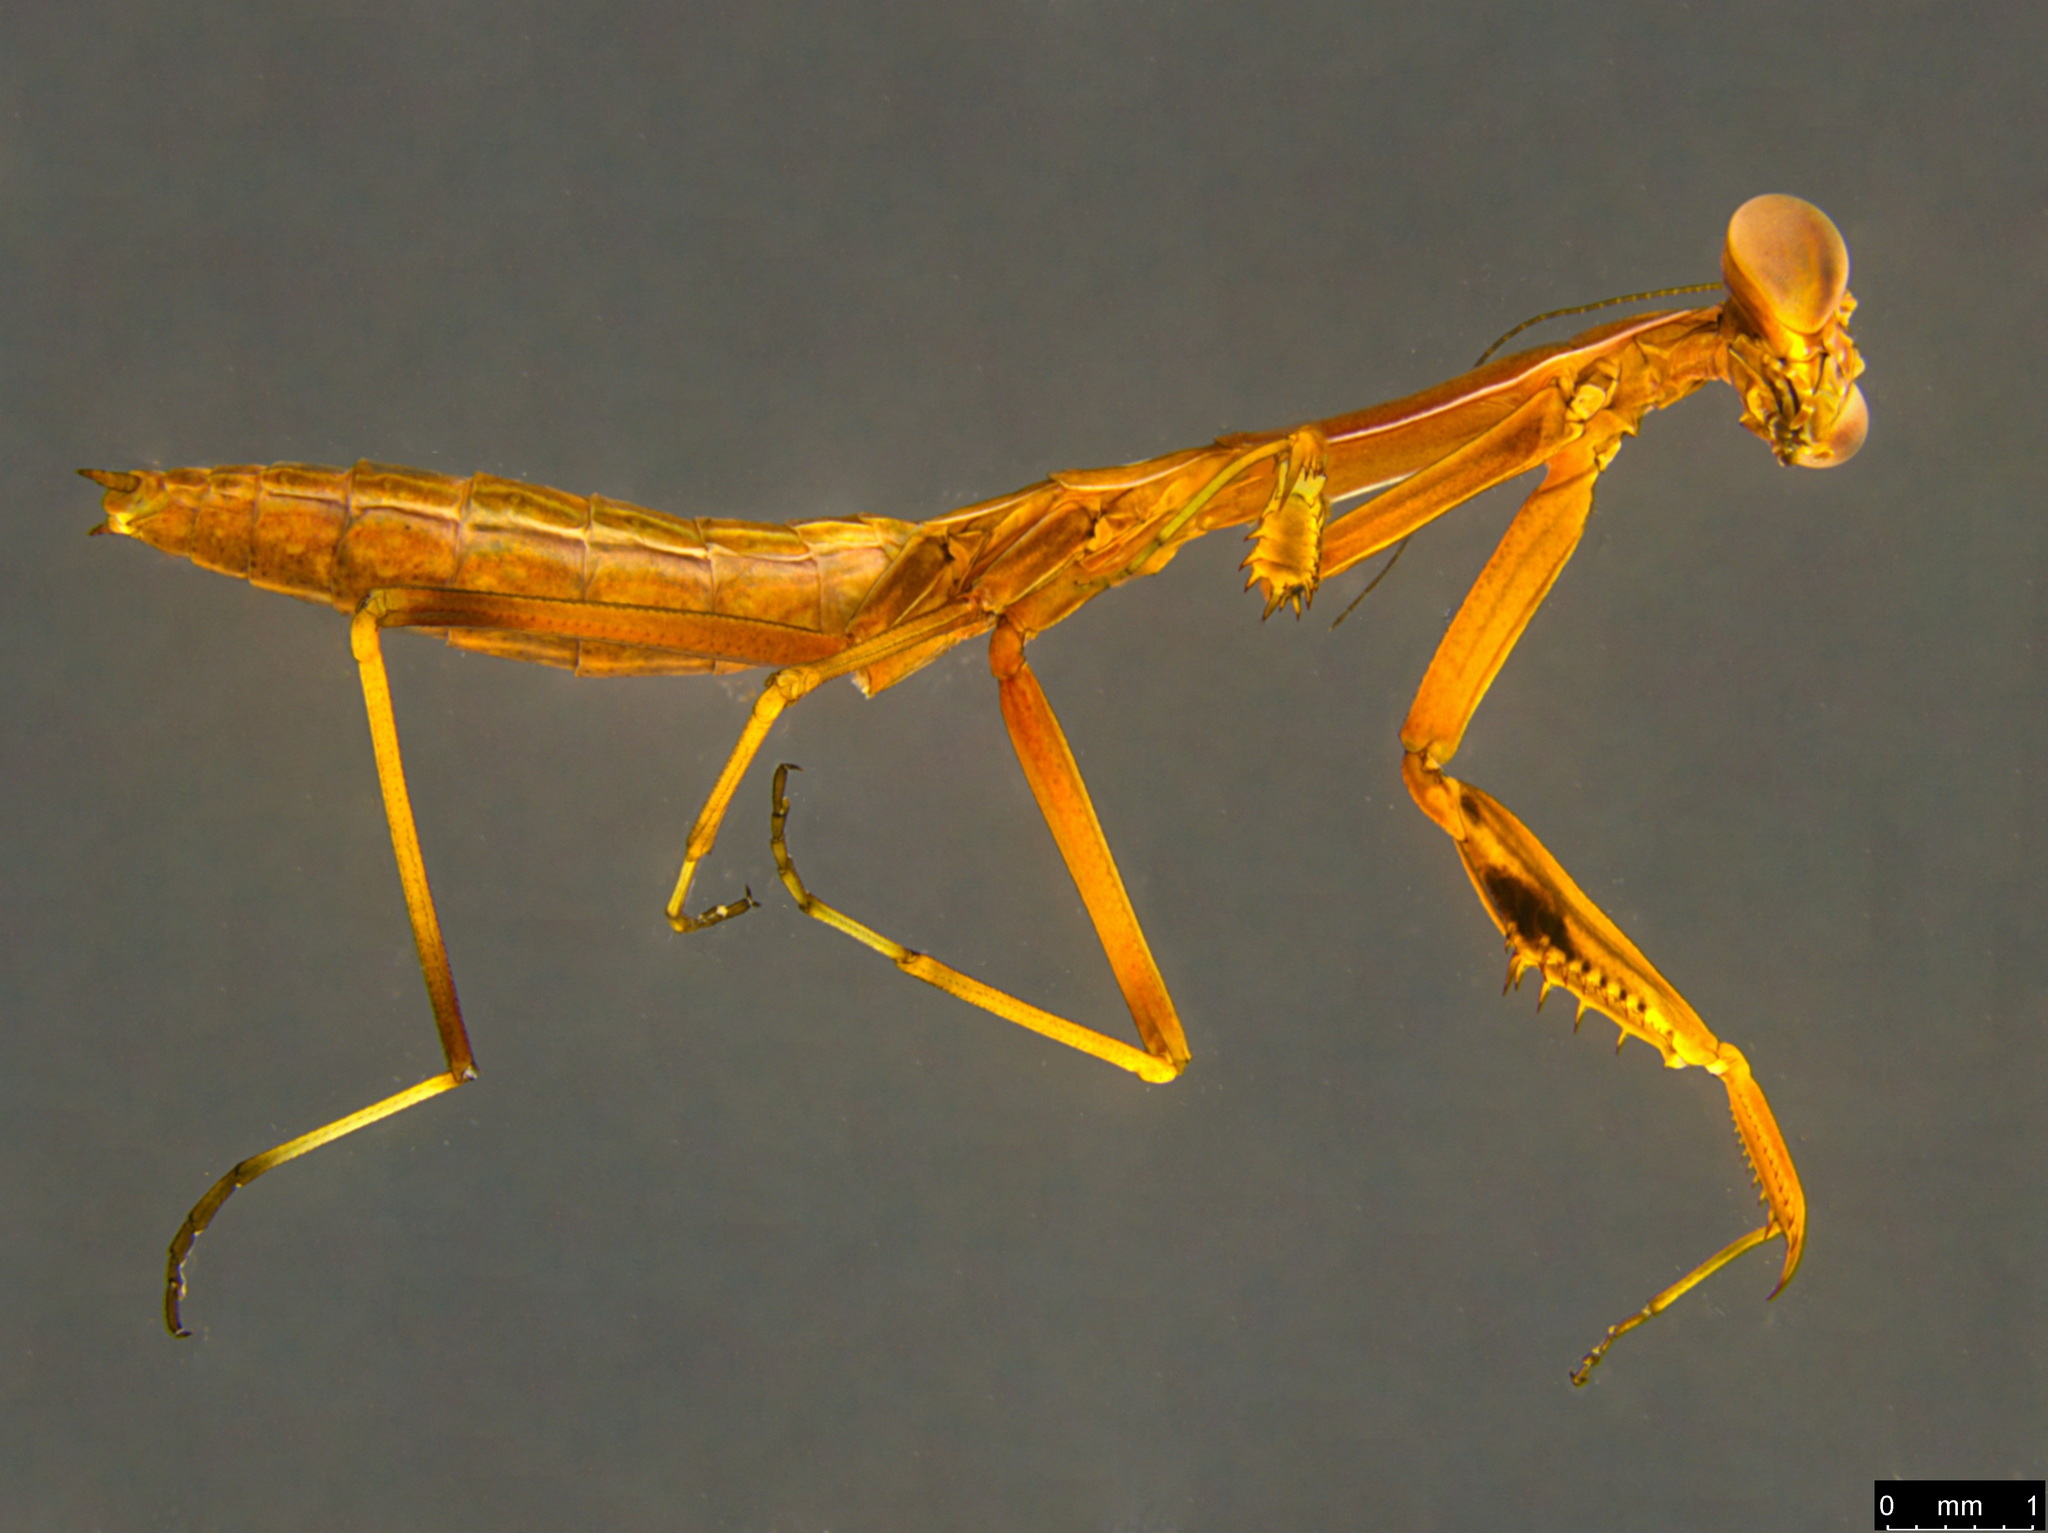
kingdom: Animalia
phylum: Arthropoda
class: Insecta
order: Mantodea
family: Mantidae
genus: Pseudomantis
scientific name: Pseudomantis albofimbriata
